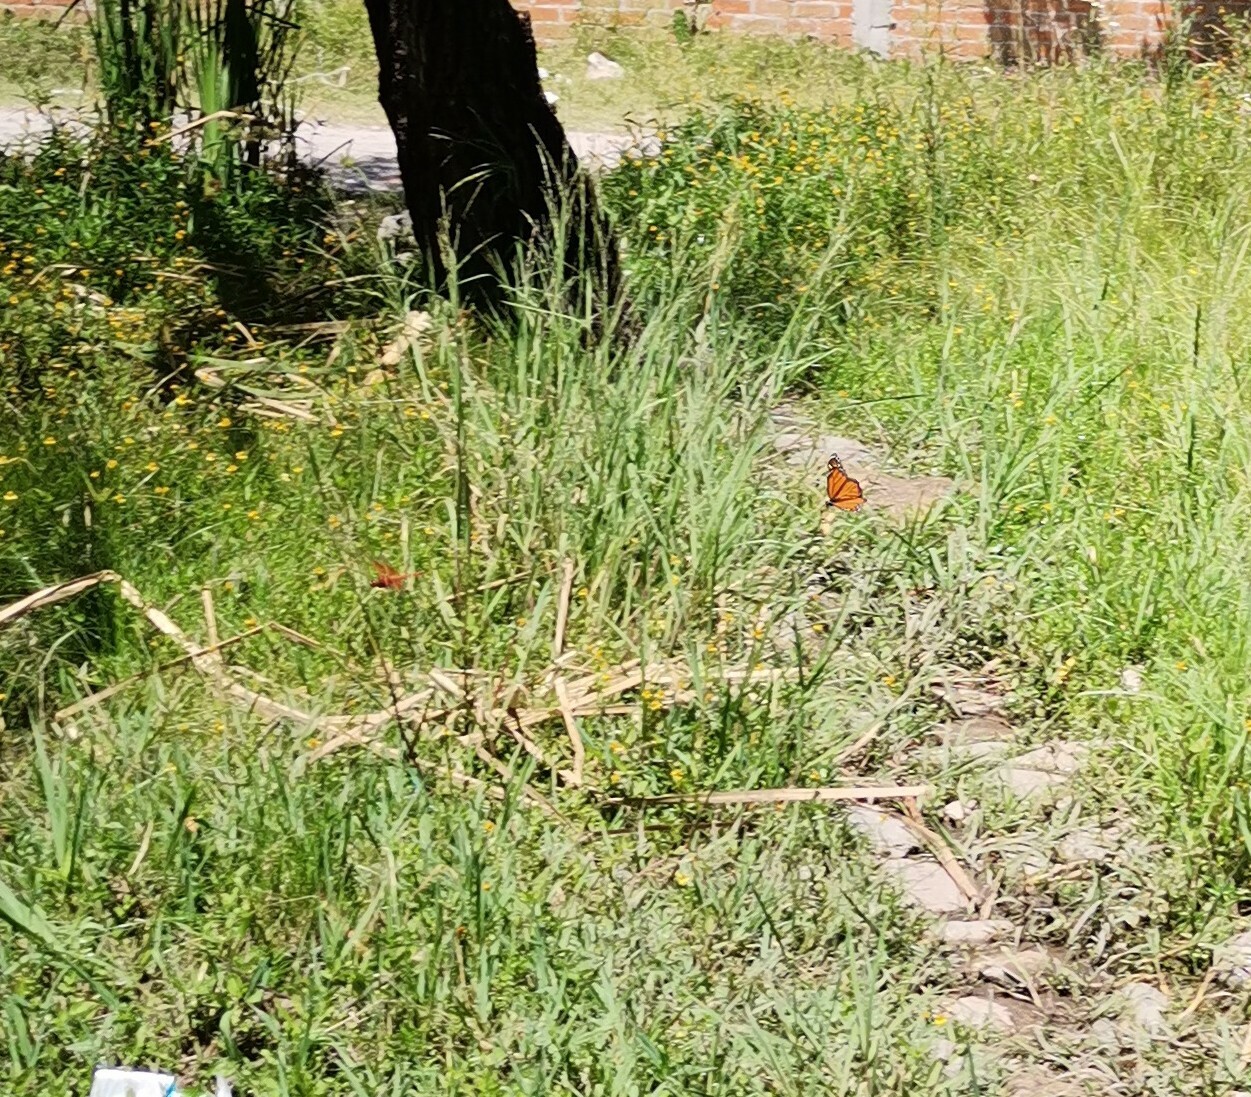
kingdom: Animalia
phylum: Arthropoda
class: Insecta
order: Lepidoptera
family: Nymphalidae
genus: Danaus
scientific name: Danaus plexippus
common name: Monarch
